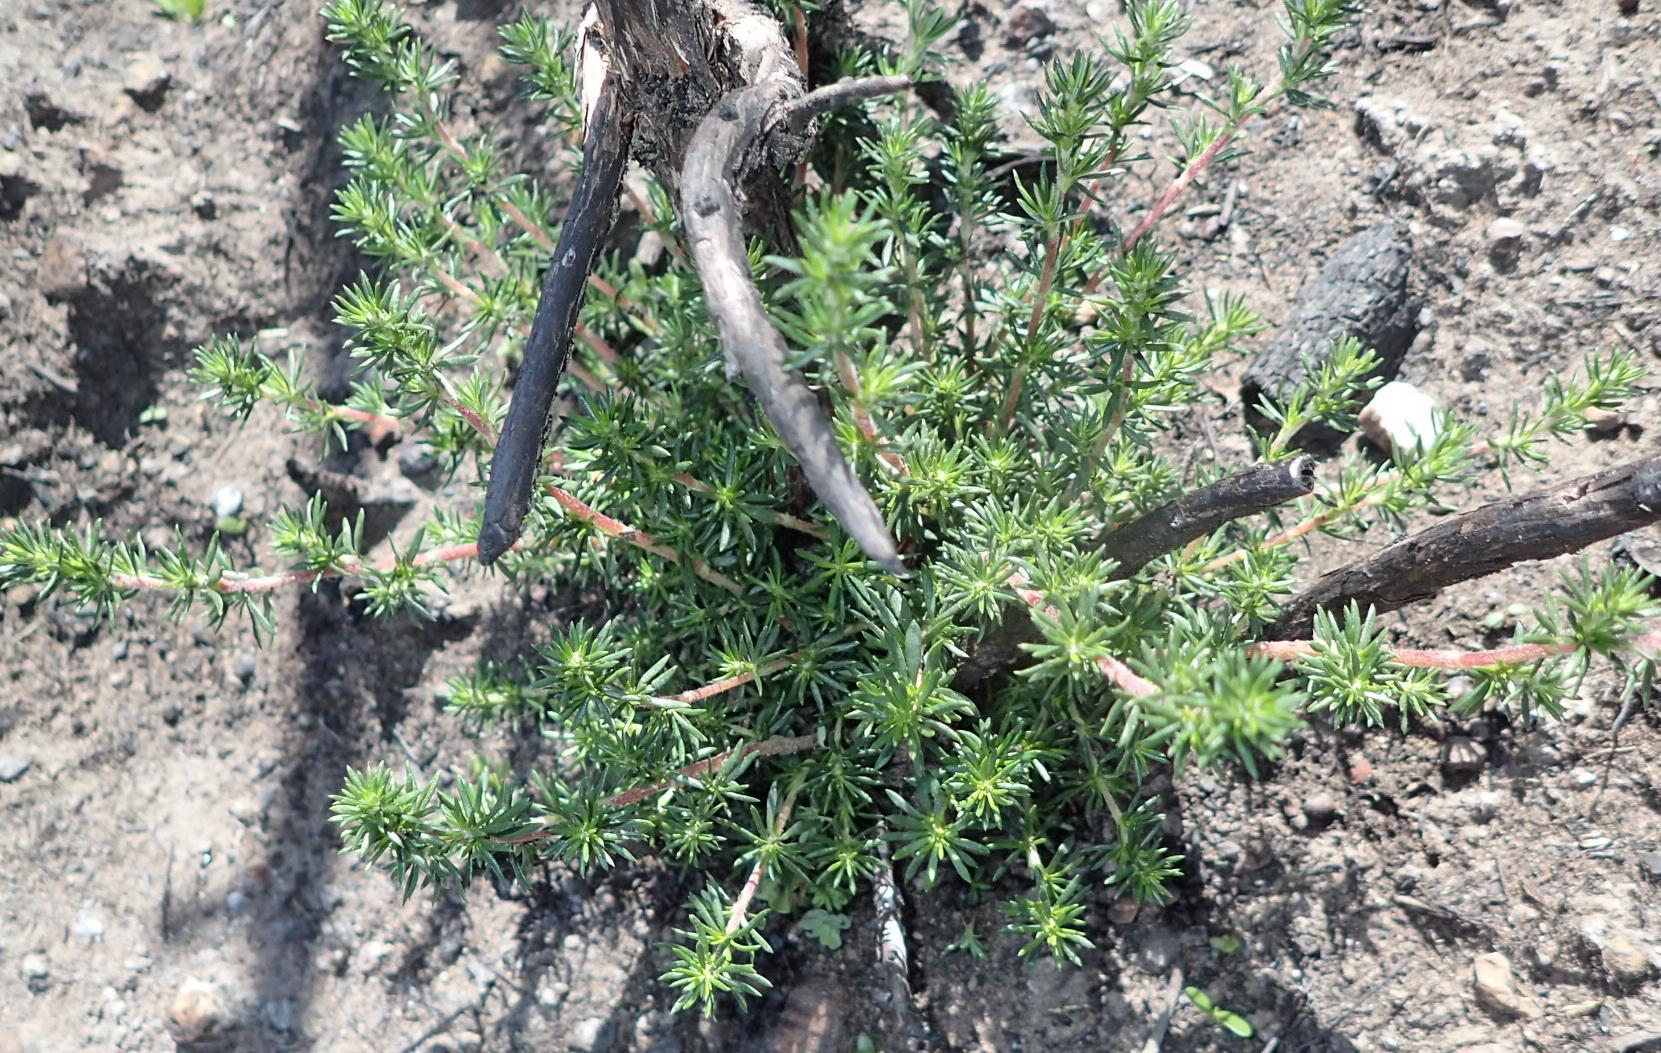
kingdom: Plantae
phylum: Tracheophyta
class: Magnoliopsida
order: Rosales
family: Rosaceae
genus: Cliffortia
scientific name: Cliffortia stricta
